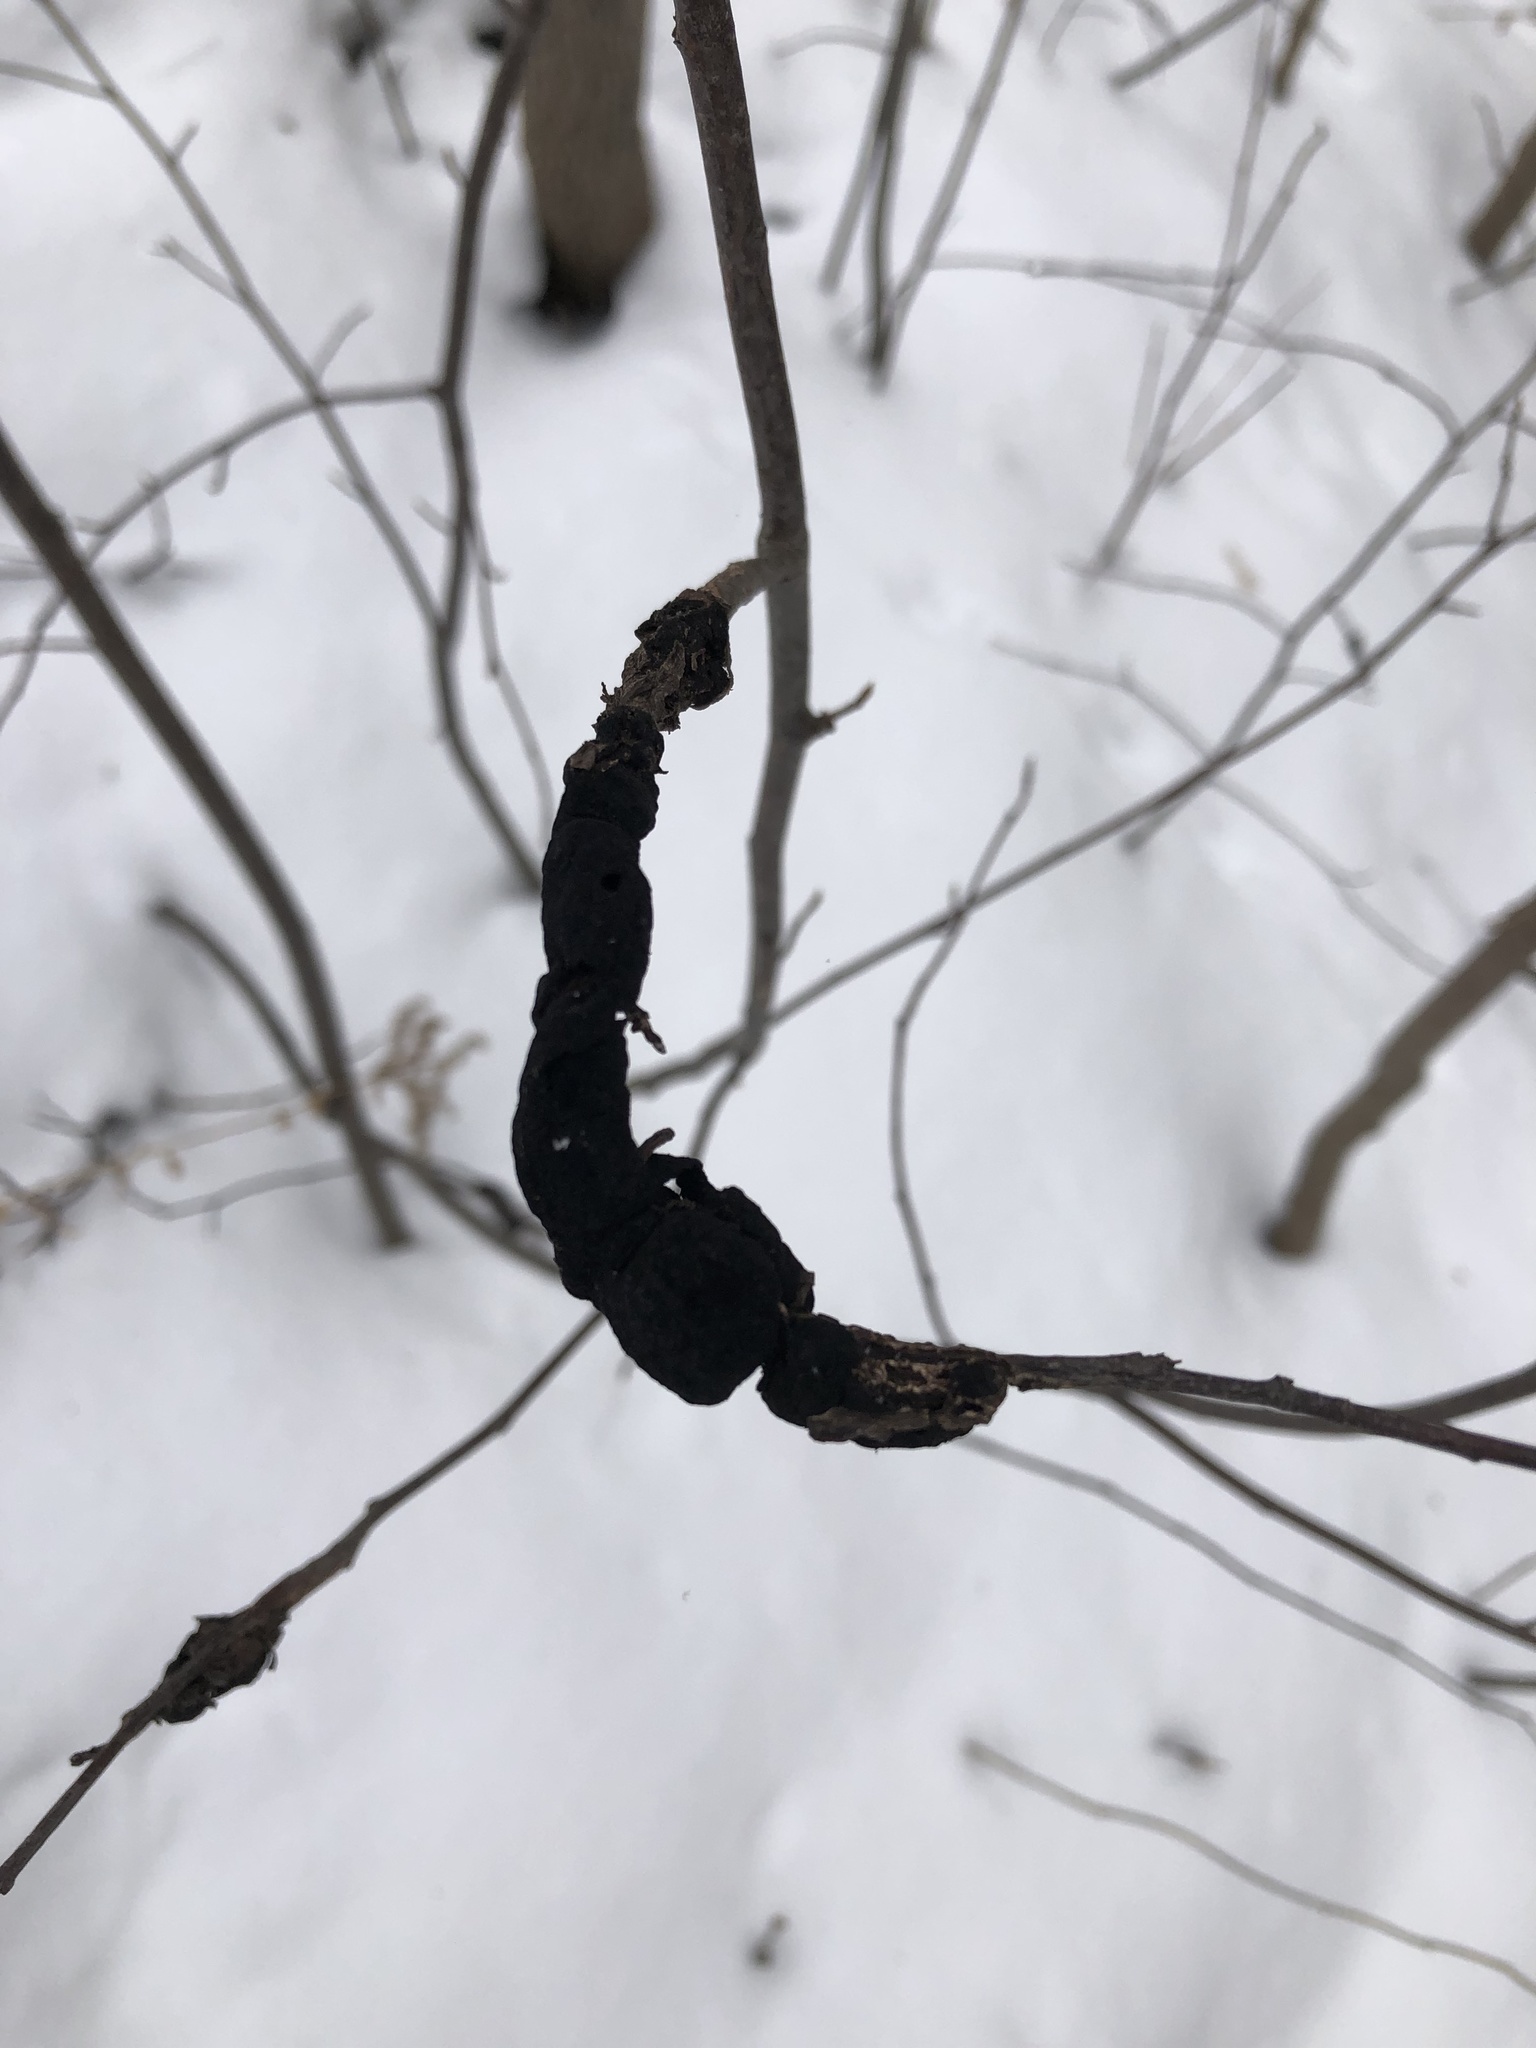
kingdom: Fungi
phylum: Ascomycota
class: Dothideomycetes
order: Venturiales
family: Venturiaceae
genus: Apiosporina
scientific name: Apiosporina morbosa
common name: Black knot
